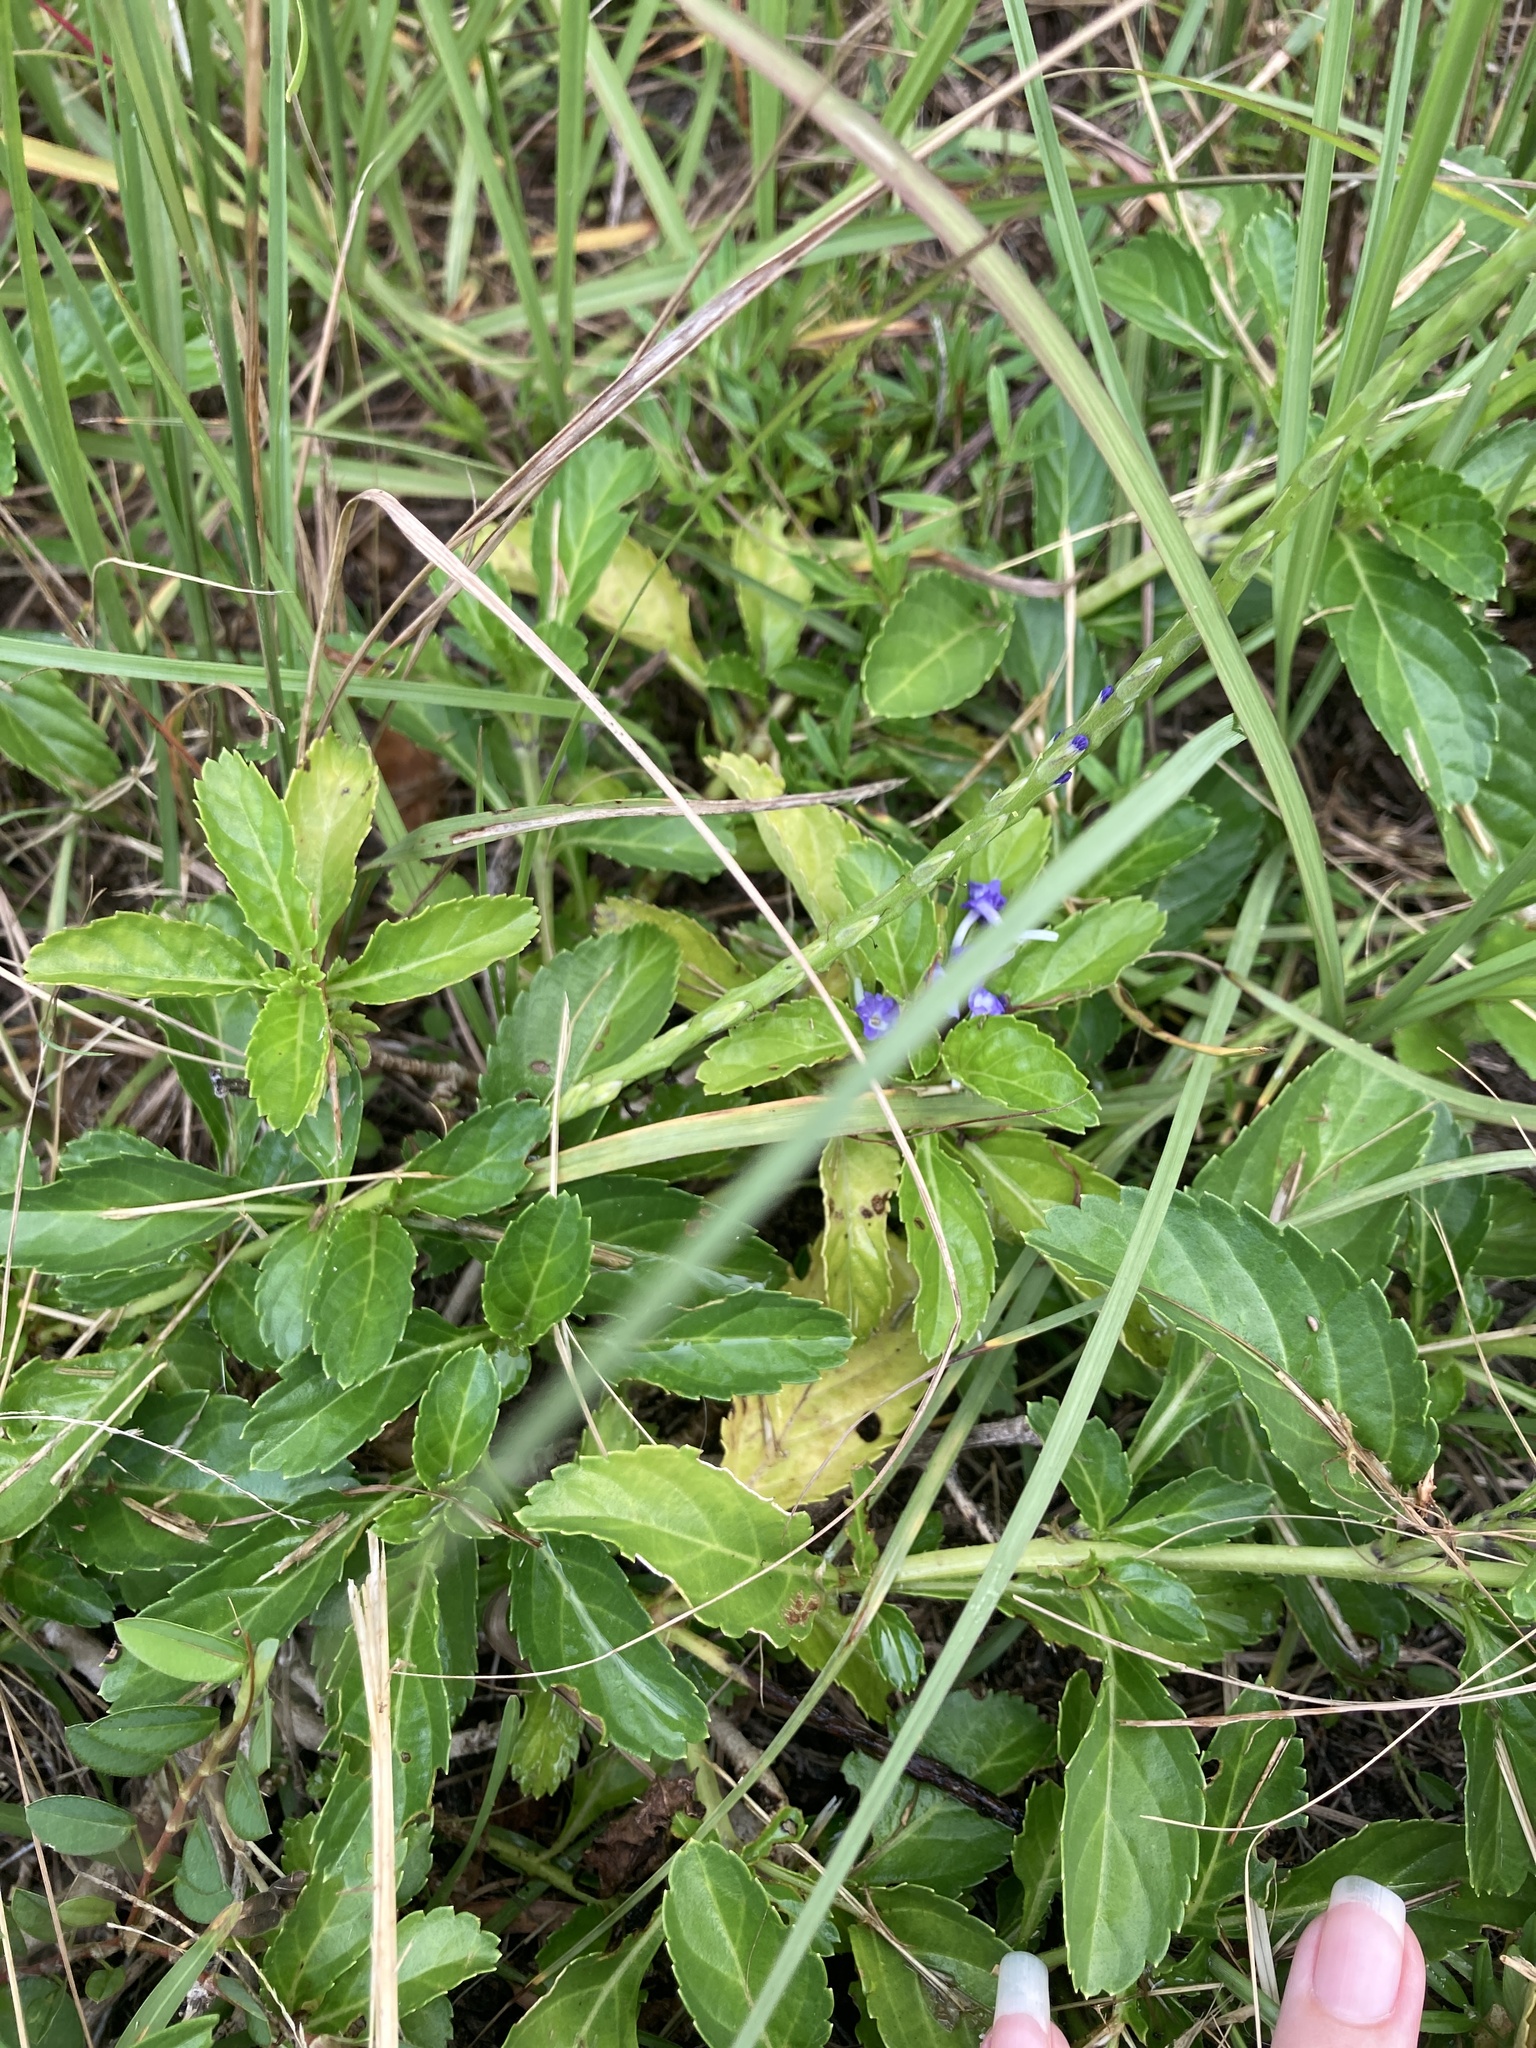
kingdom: Plantae
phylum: Tracheophyta
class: Magnoliopsida
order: Lamiales
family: Verbenaceae
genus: Stachytarpheta
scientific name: Stachytarpheta jamaicensis
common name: Light-blue snakeweed
